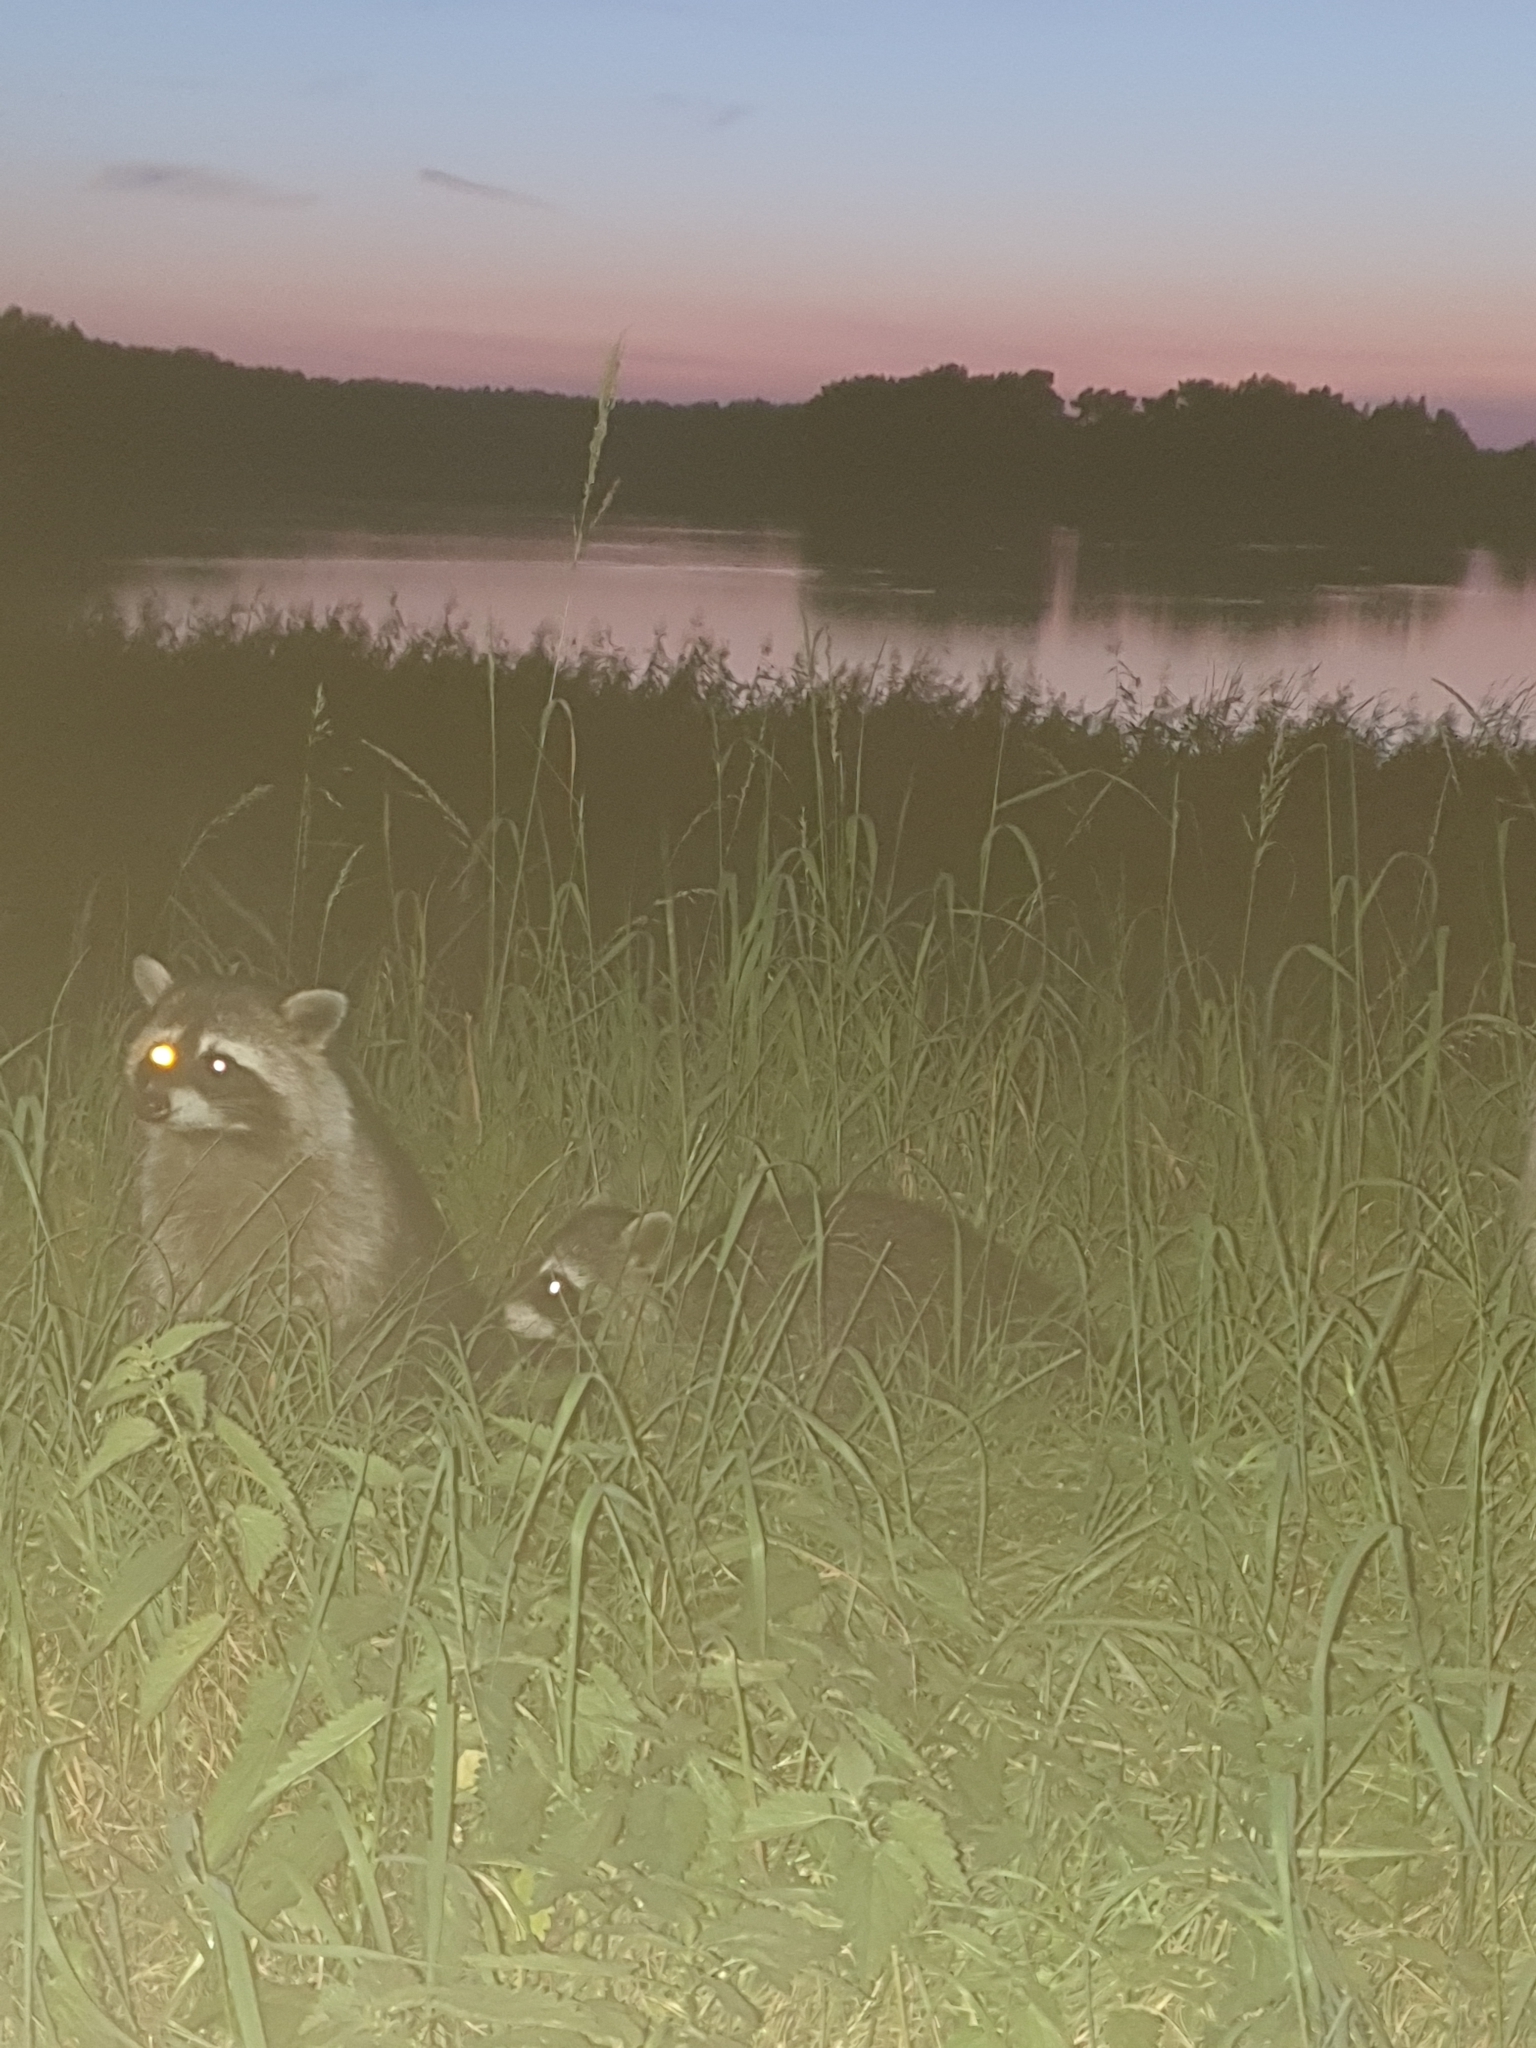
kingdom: Animalia
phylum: Chordata
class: Mammalia
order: Carnivora
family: Procyonidae
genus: Procyon
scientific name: Procyon lotor
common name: Raccoon
